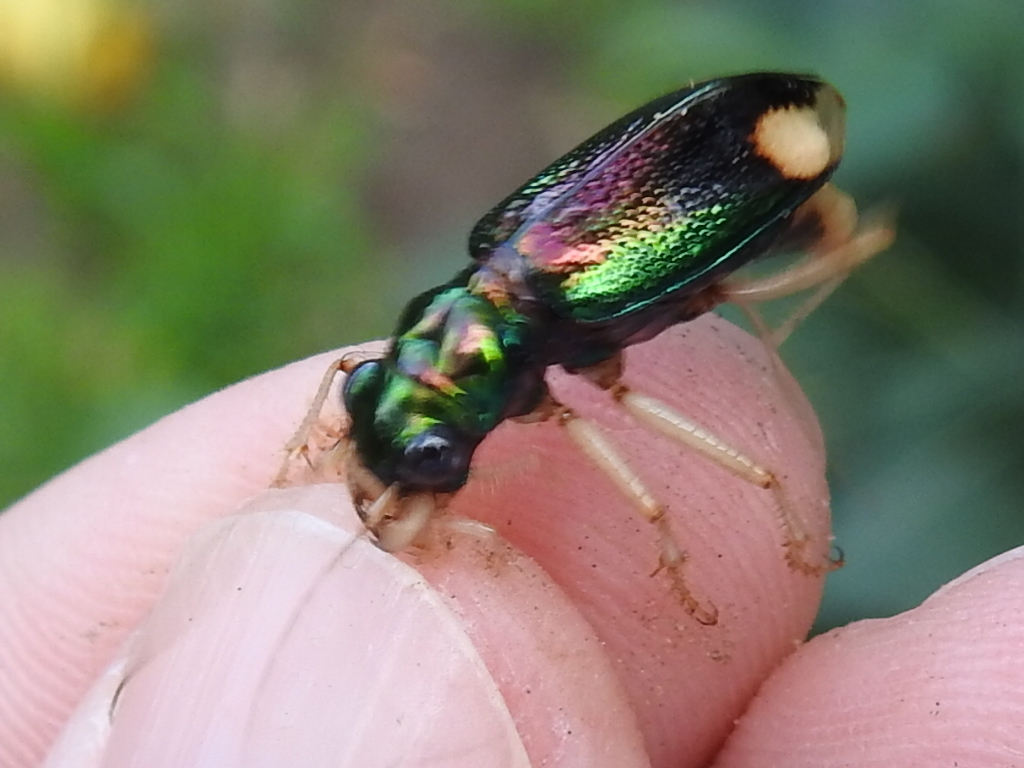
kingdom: Animalia
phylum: Arthropoda
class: Insecta
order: Coleoptera
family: Carabidae
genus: Tetracha
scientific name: Tetracha carolina
